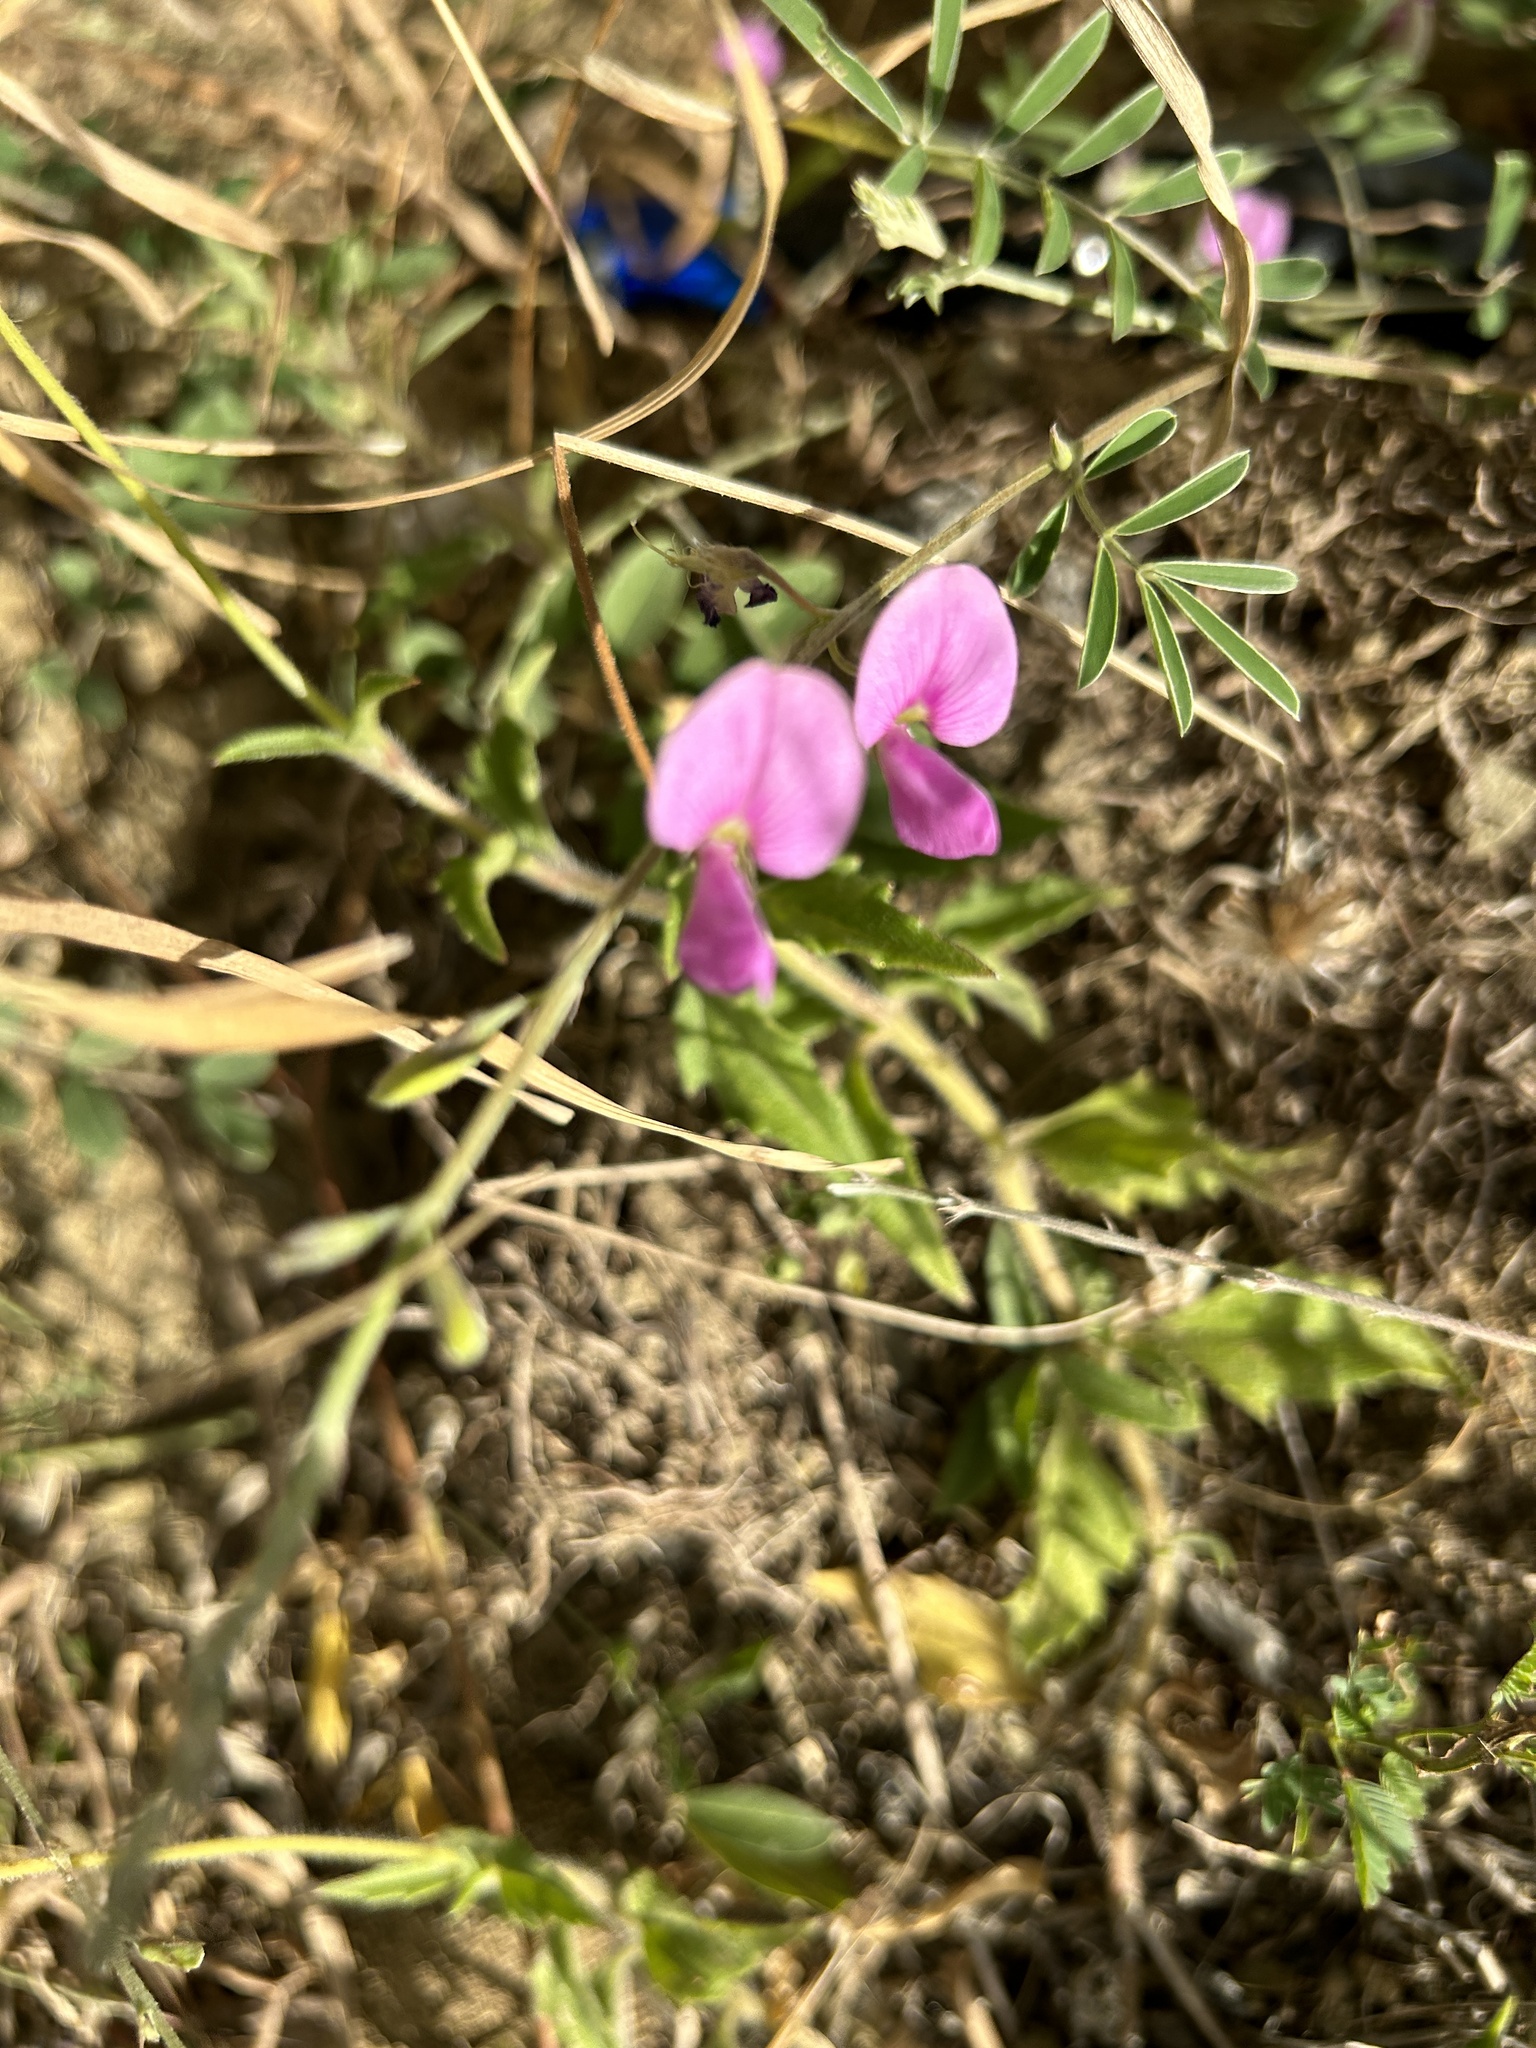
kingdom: Plantae
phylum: Tracheophyta
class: Magnoliopsida
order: Fabales
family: Fabaceae
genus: Tephrosia
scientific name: Tephrosia cinerea
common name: Ashen hoarypea
